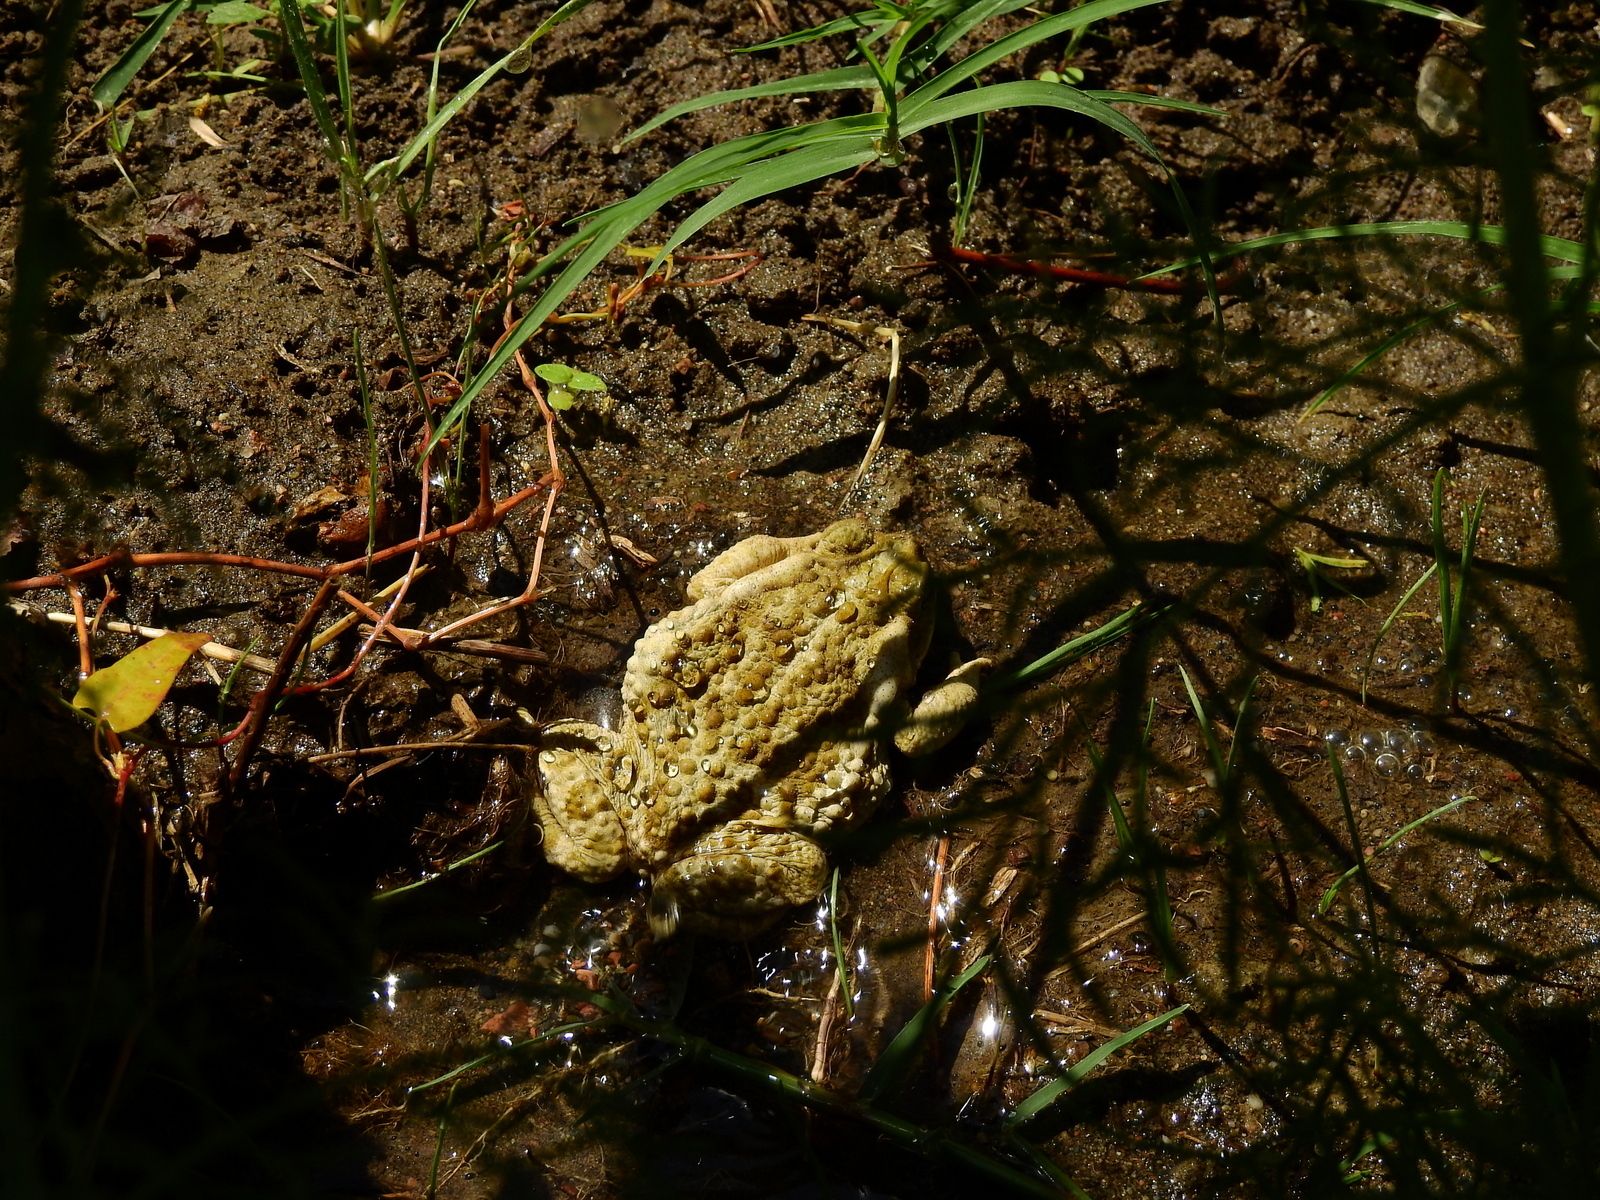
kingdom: Animalia
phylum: Chordata
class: Amphibia
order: Anura
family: Bufonidae
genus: Rhinella
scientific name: Rhinella arenarum
